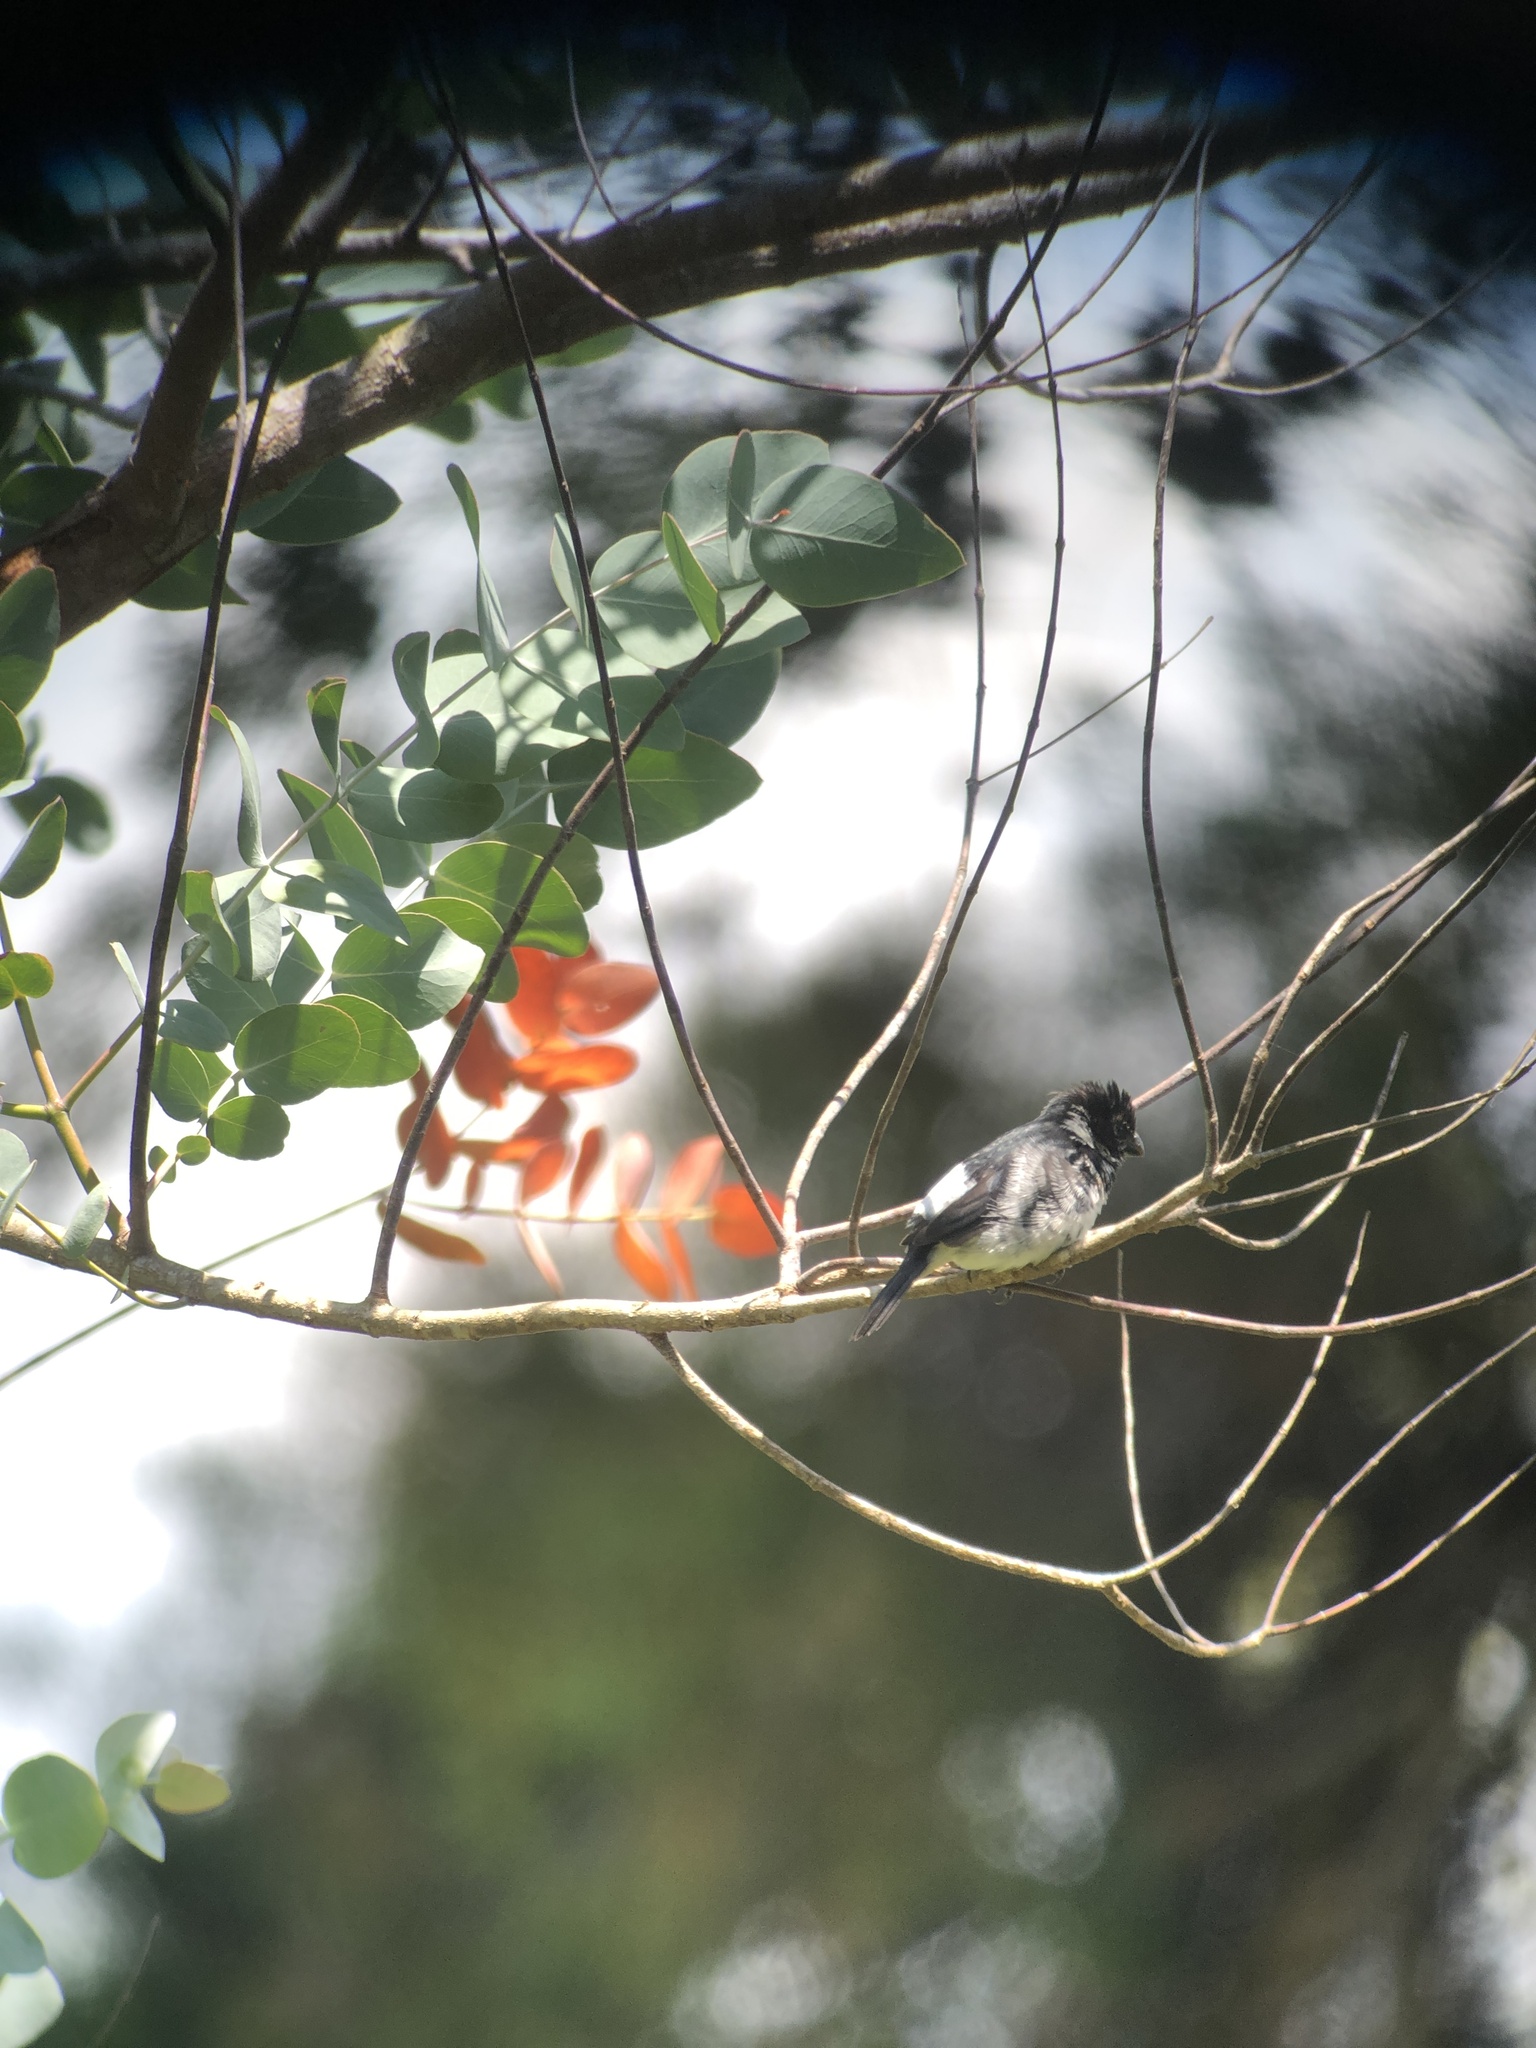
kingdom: Animalia
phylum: Chordata
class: Aves
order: Passeriformes
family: Thraupidae
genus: Sporophila
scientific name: Sporophila corvina
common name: Variable seedeater
